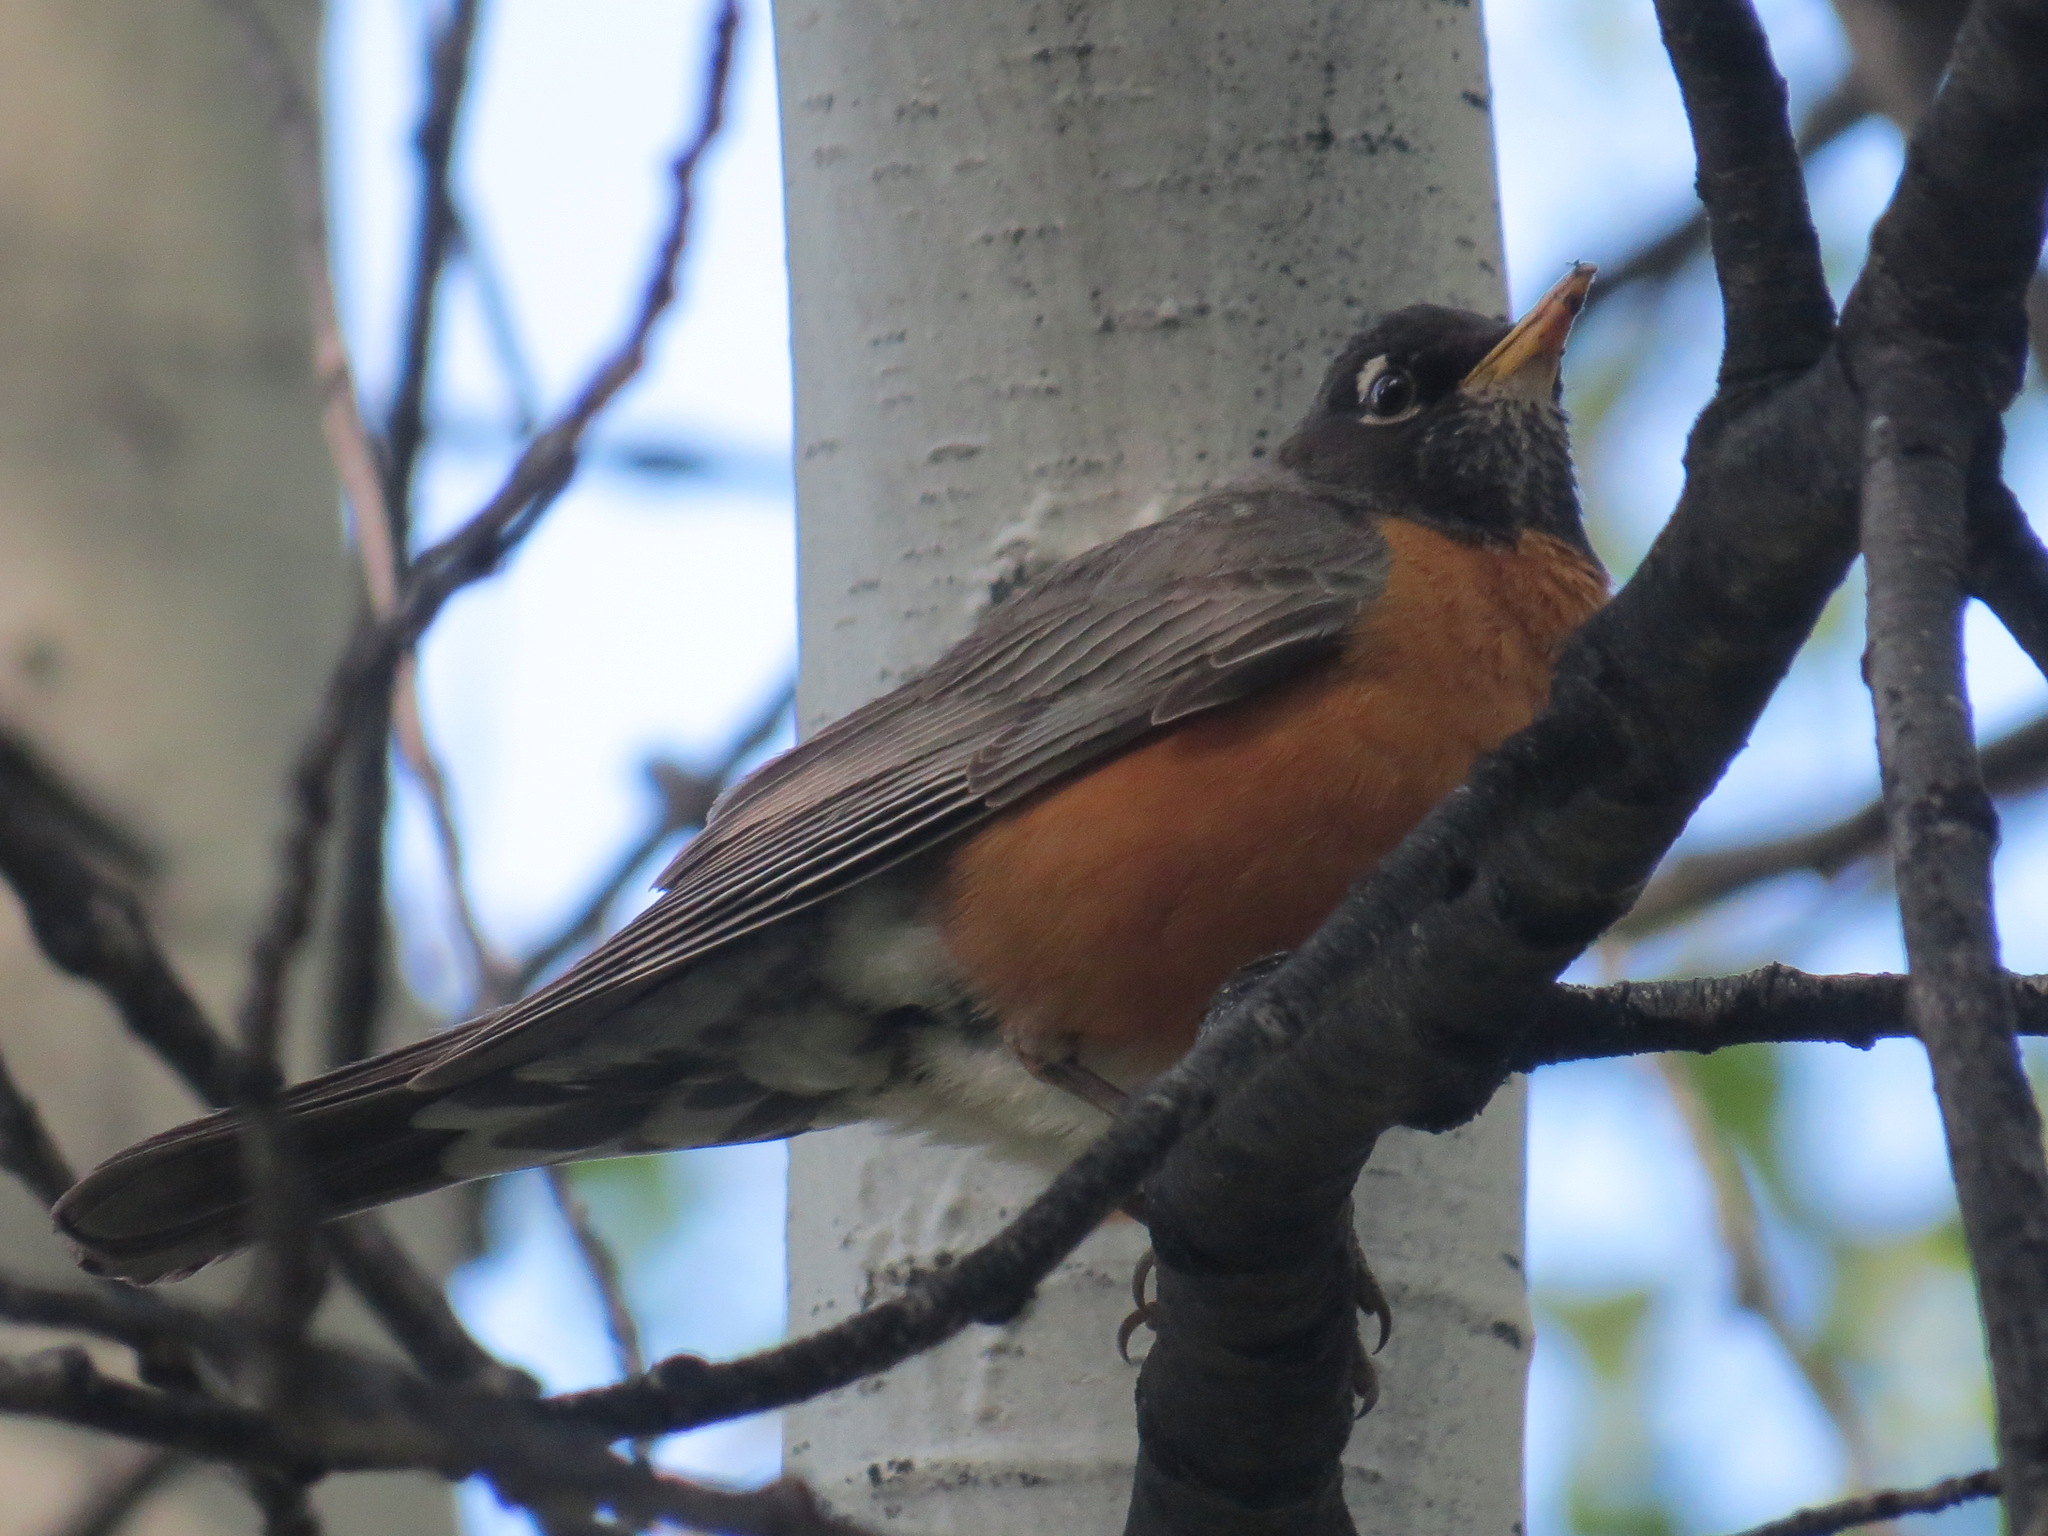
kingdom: Animalia
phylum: Chordata
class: Aves
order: Passeriformes
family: Turdidae
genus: Turdus
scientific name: Turdus migratorius
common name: American robin
